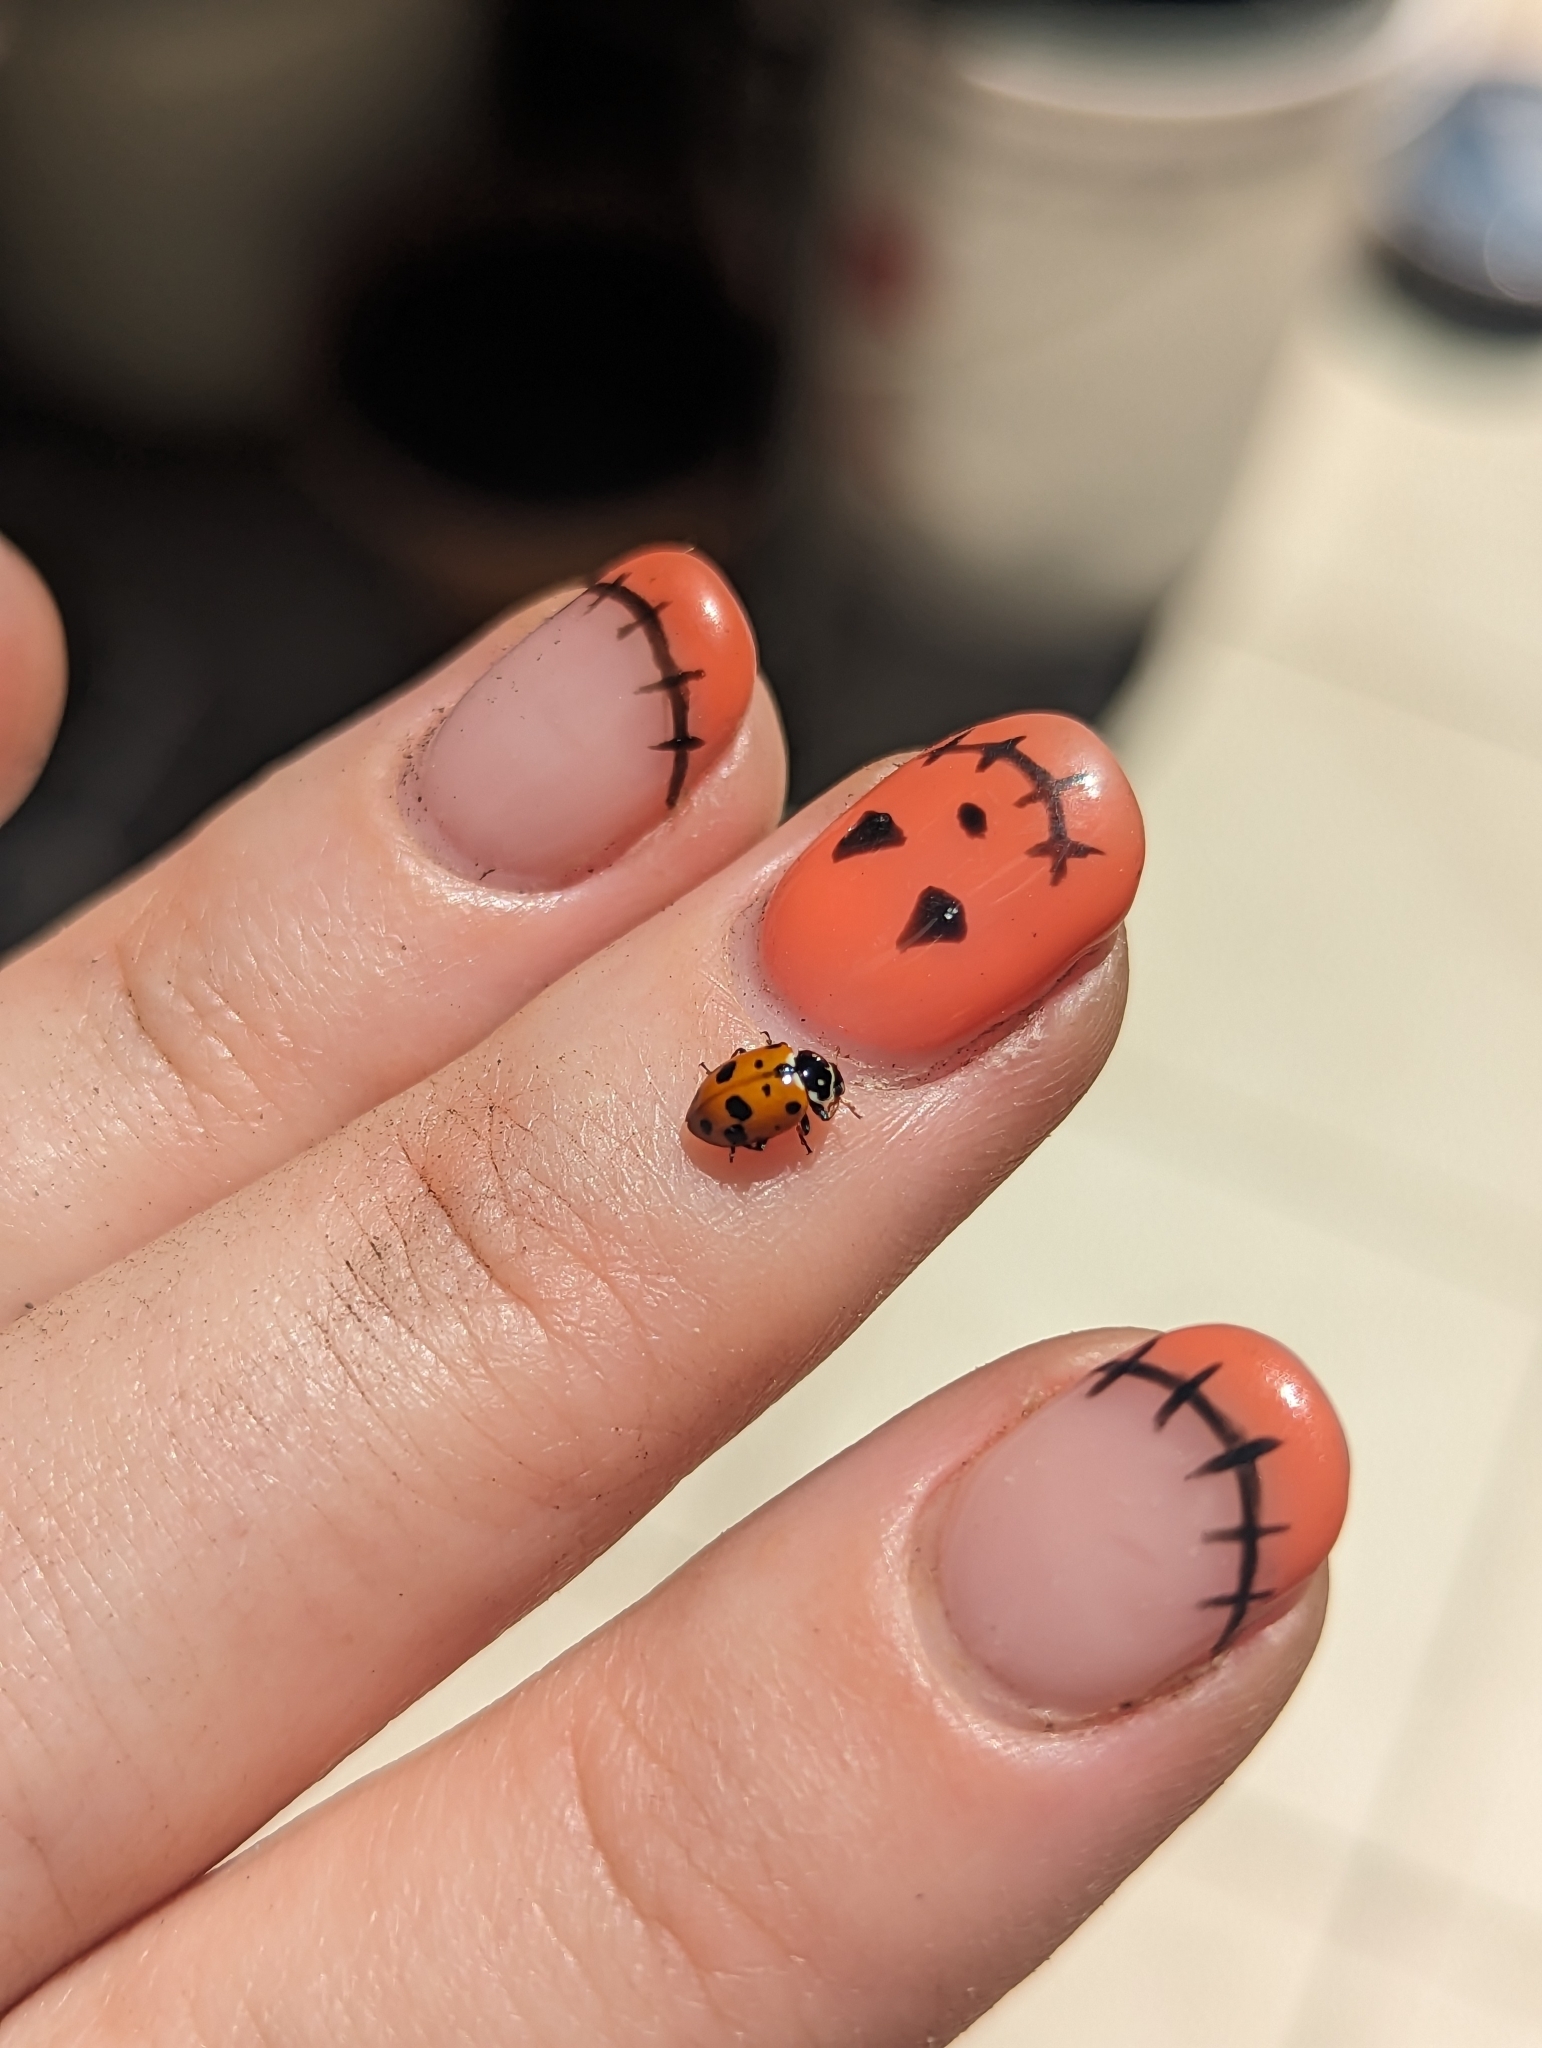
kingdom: Animalia
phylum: Arthropoda
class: Insecta
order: Coleoptera
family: Coccinellidae
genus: Hippodamia
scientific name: Hippodamia variegata
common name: Ladybird beetle
